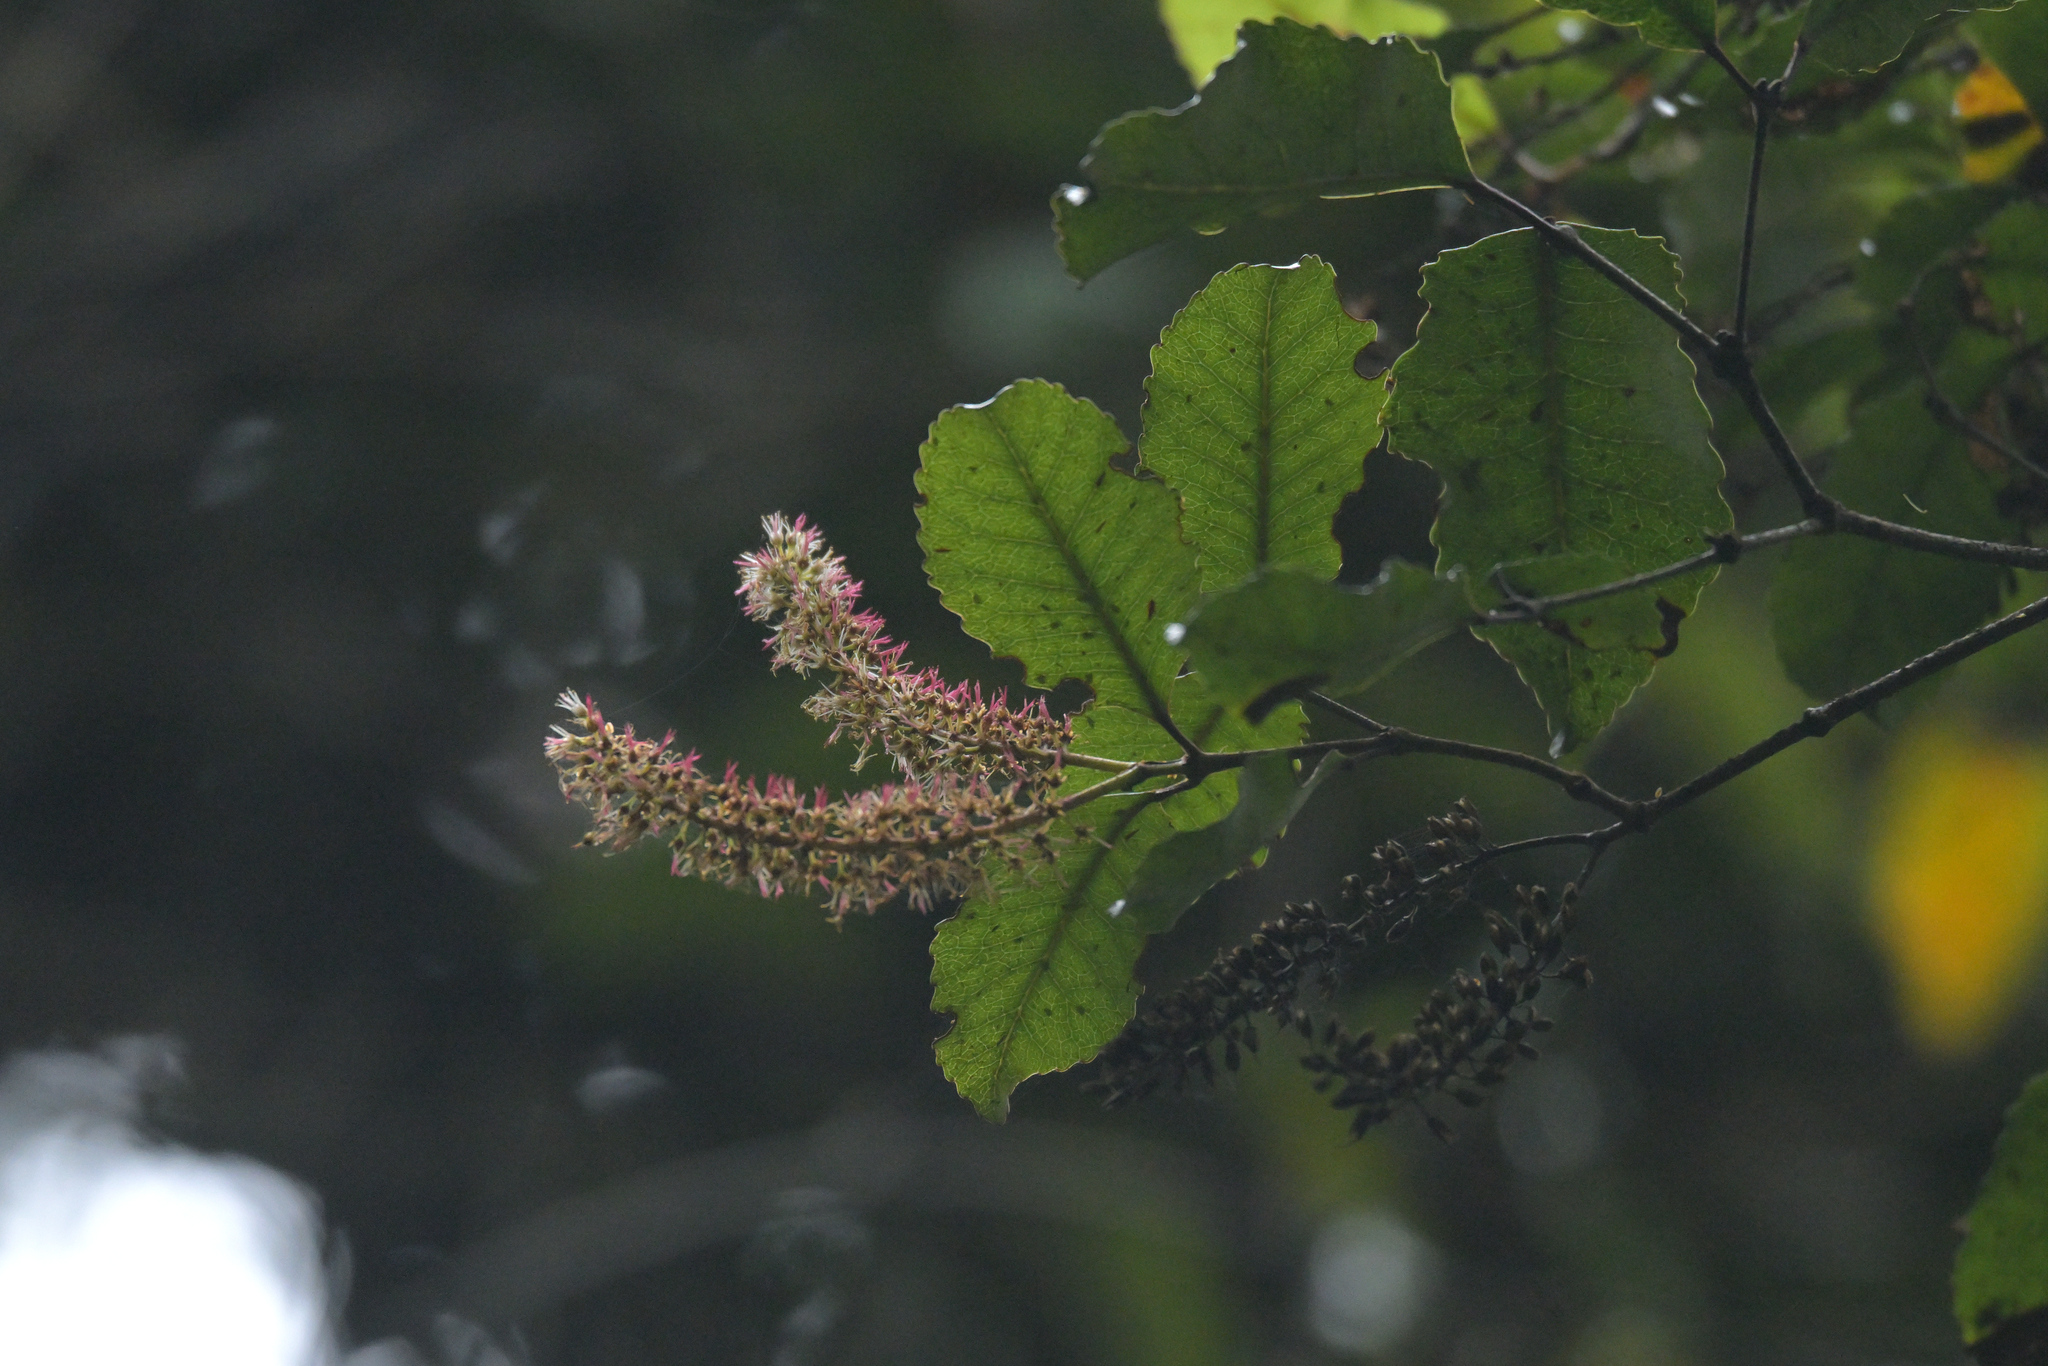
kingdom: Plantae
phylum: Tracheophyta
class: Magnoliopsida
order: Oxalidales
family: Cunoniaceae
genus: Pterophylla
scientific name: Pterophylla racemosa
